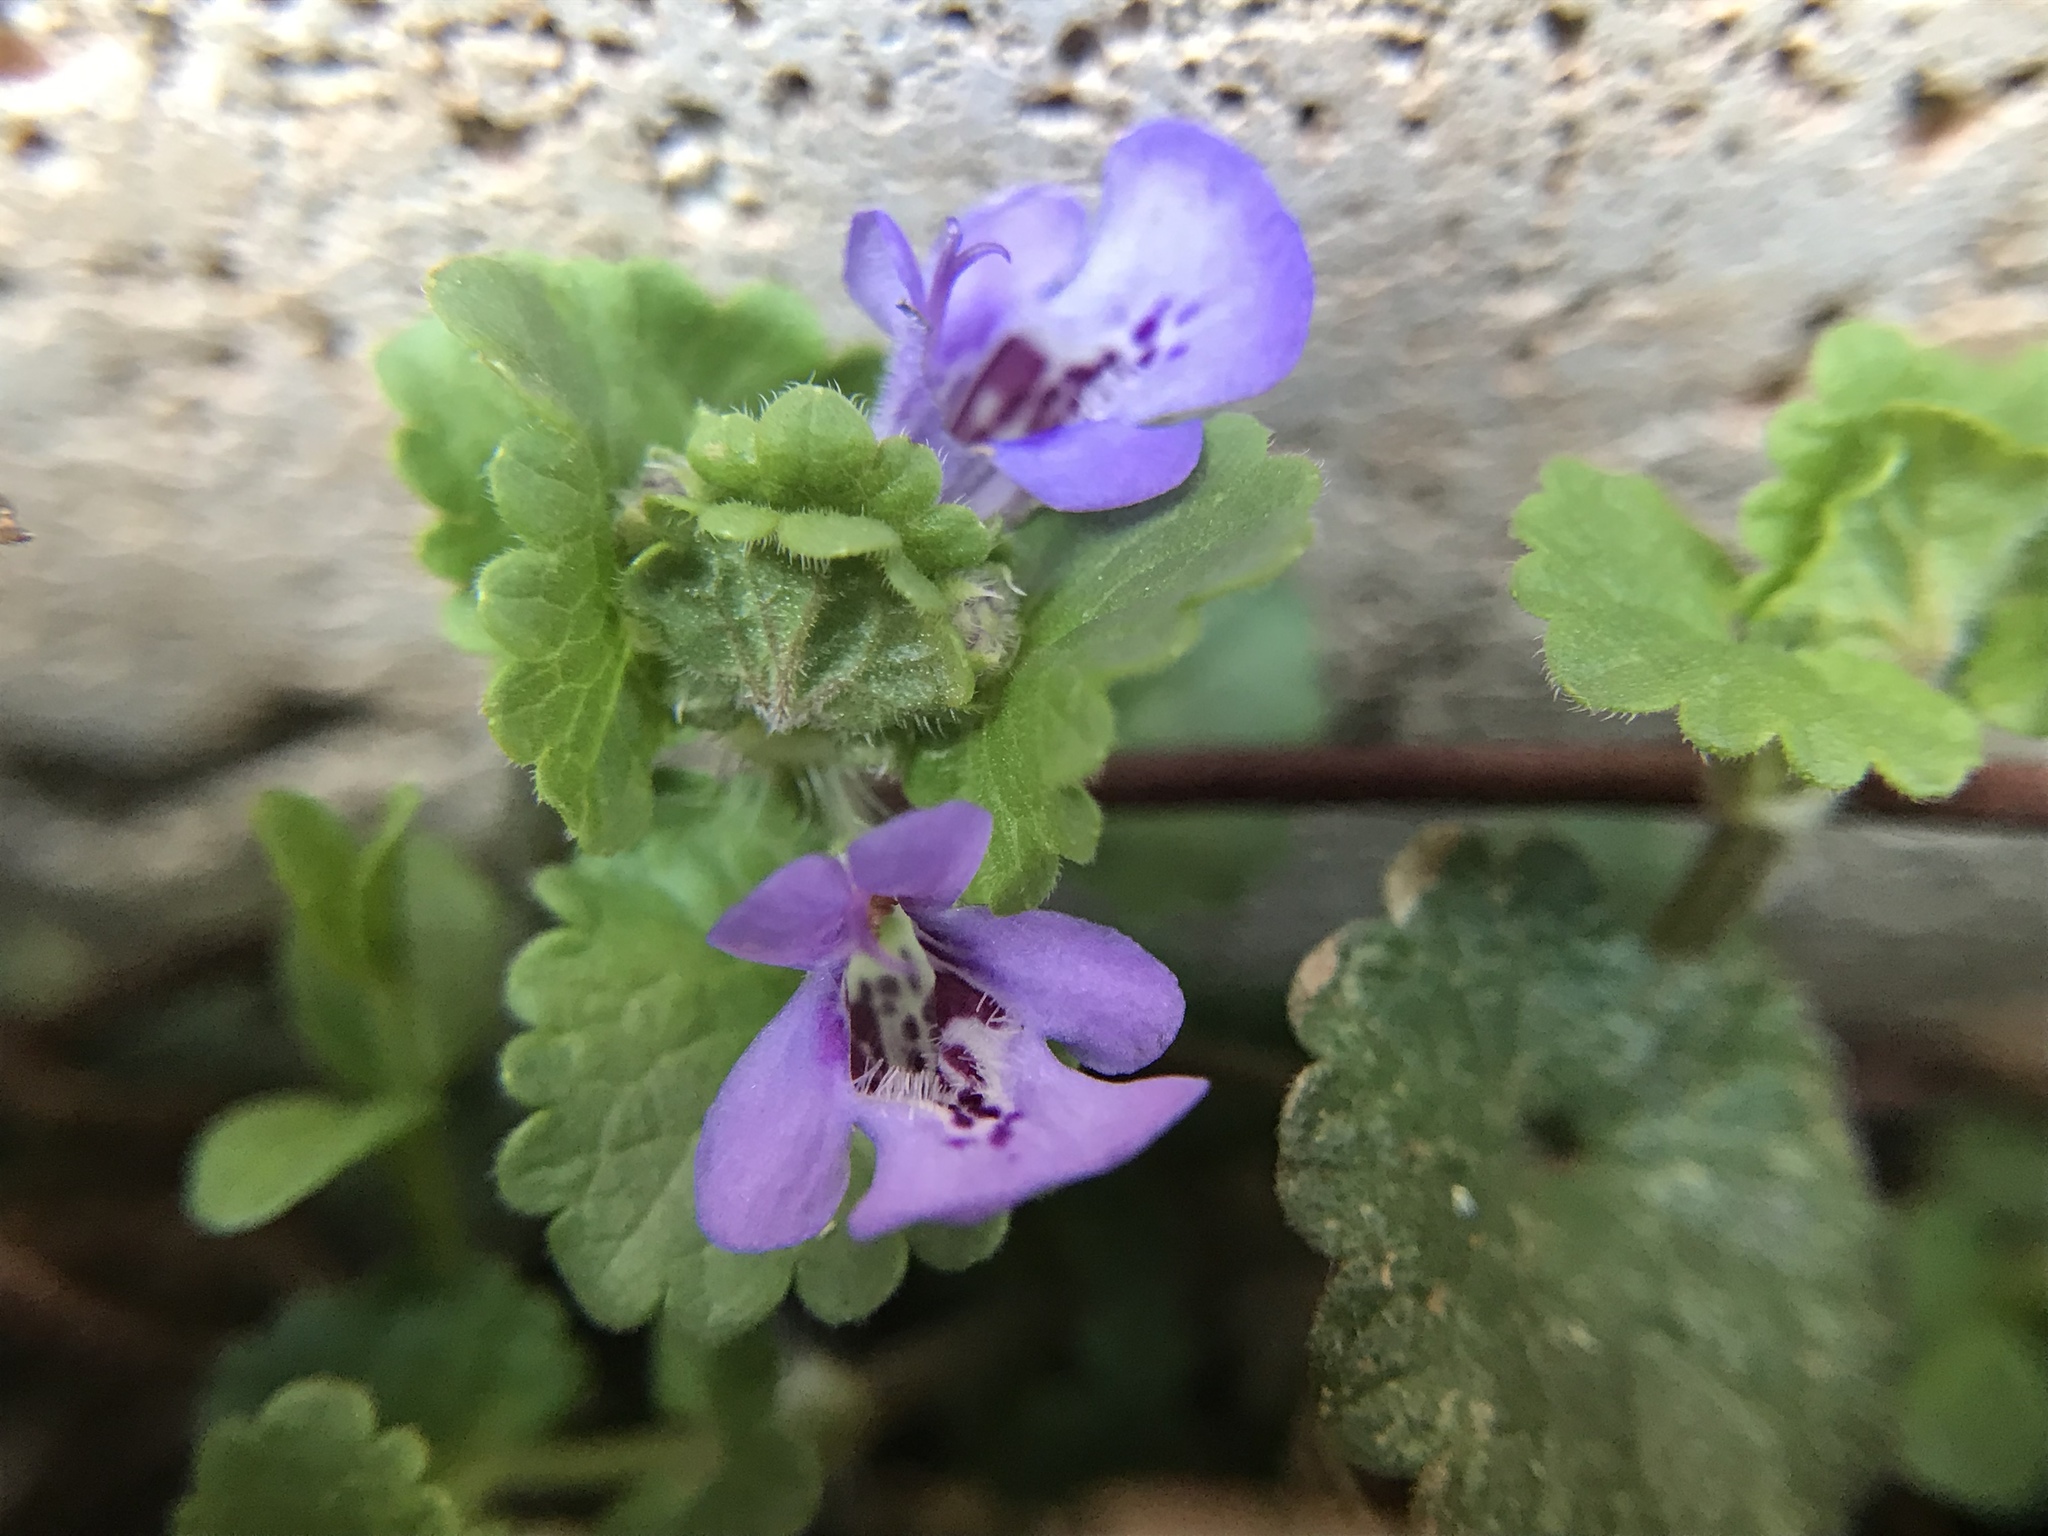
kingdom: Plantae
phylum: Tracheophyta
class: Magnoliopsida
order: Lamiales
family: Lamiaceae
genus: Glechoma
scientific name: Glechoma hederacea
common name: Ground ivy
